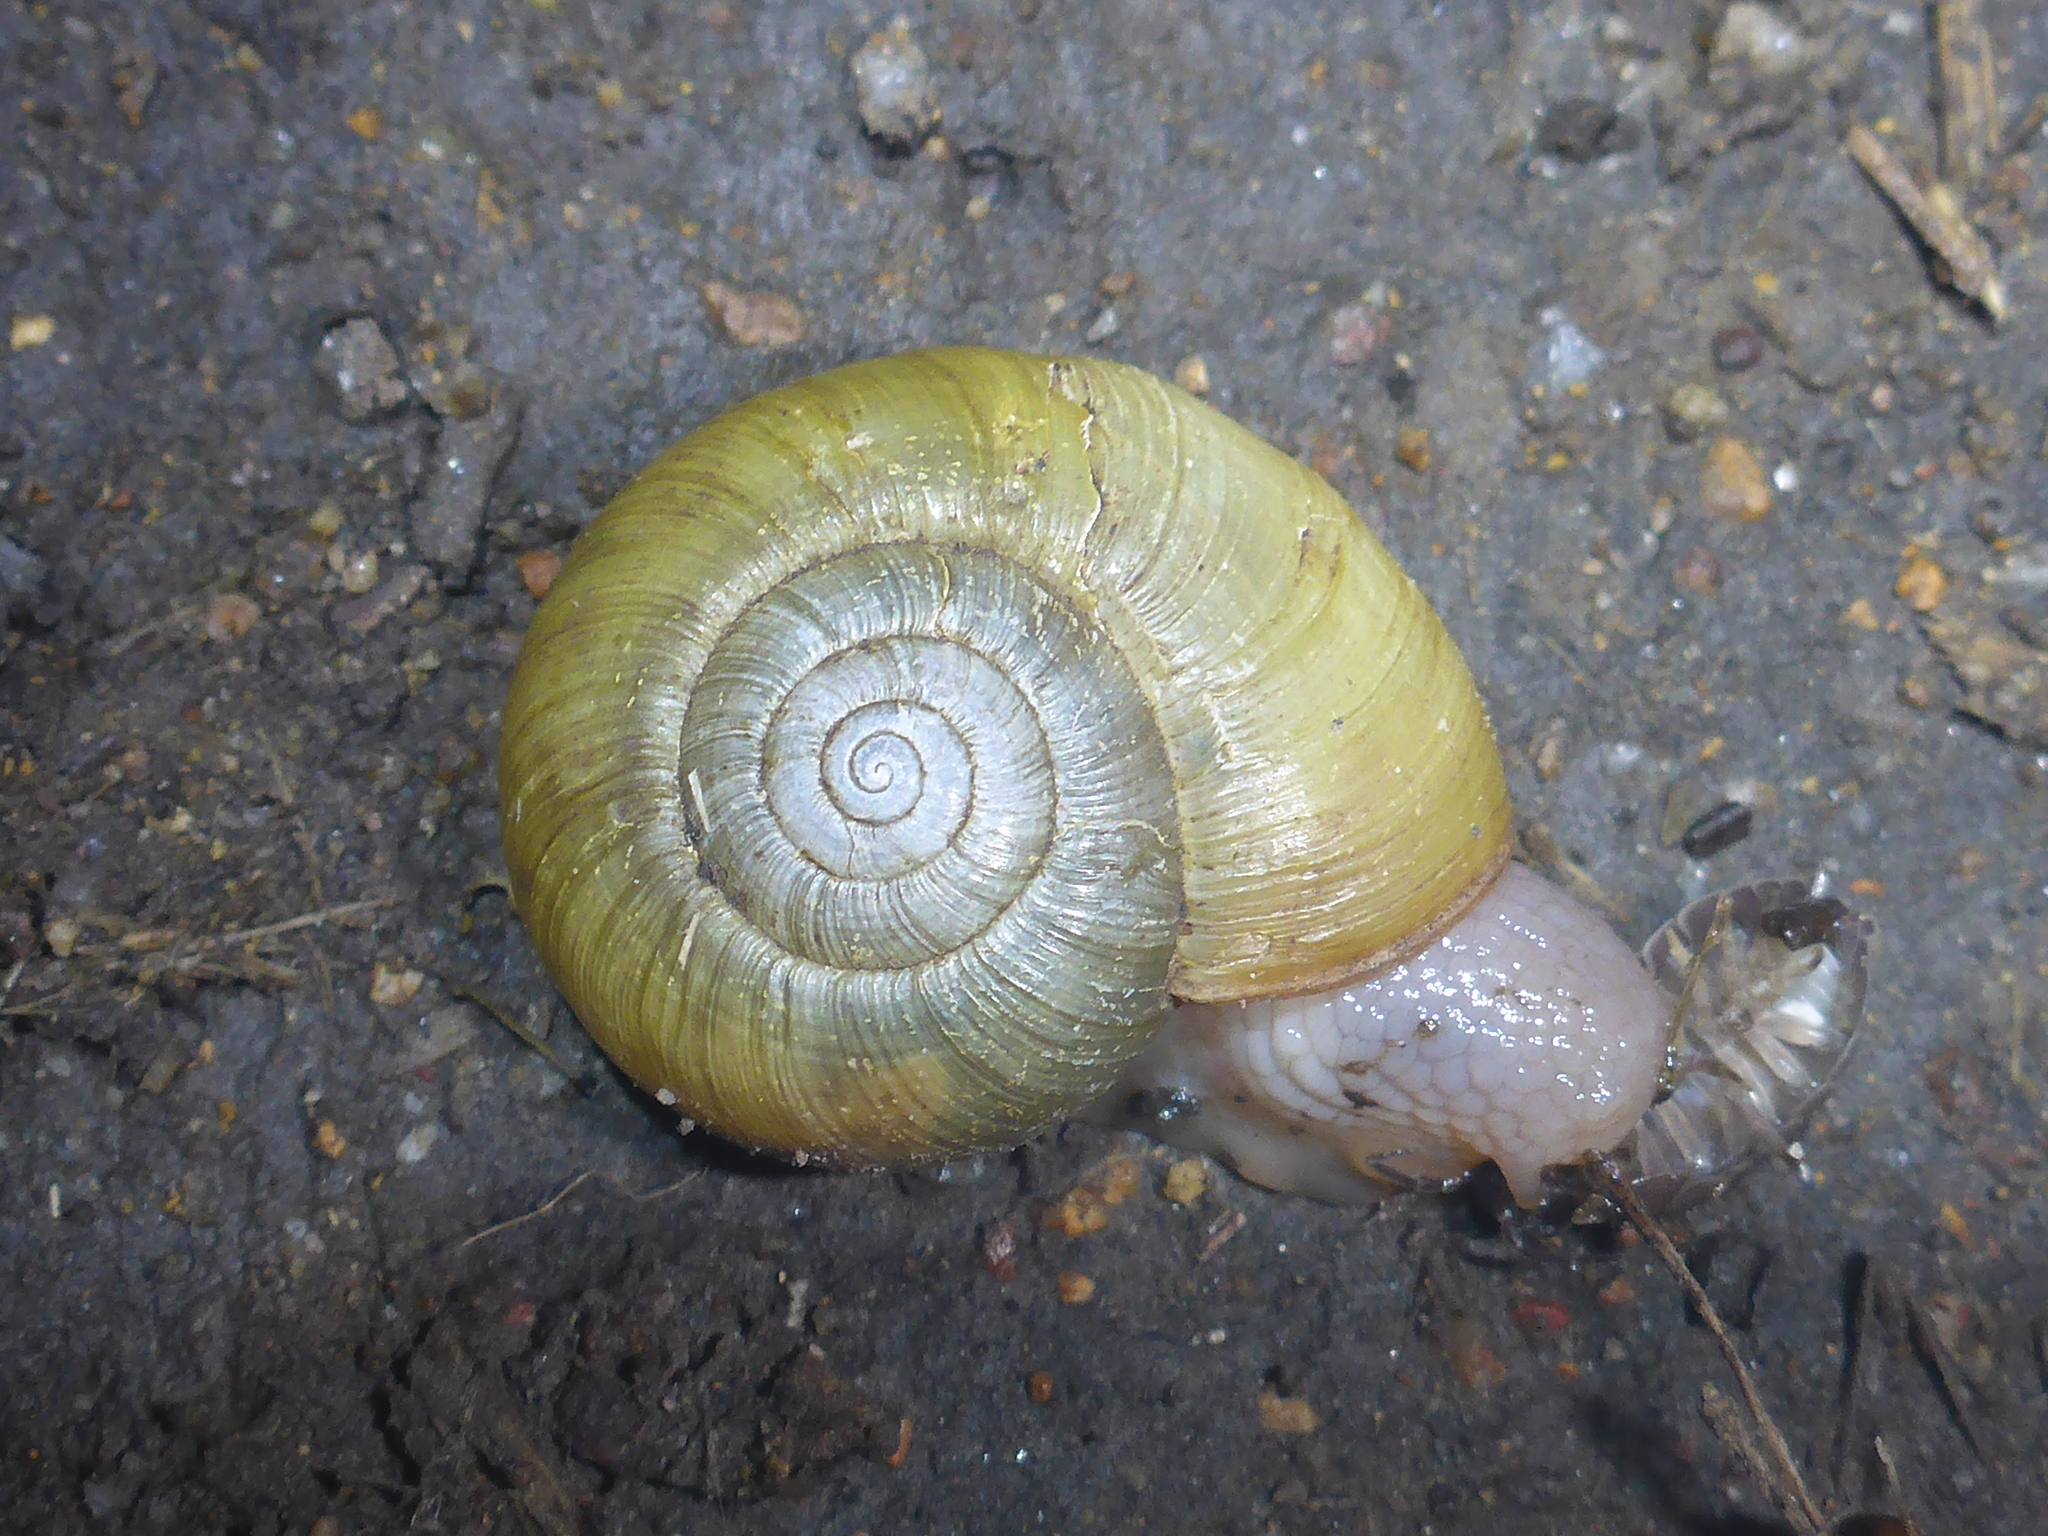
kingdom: Animalia
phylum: Mollusca
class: Gastropoda
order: Stylommatophora
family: Haplotrematidae
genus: Haplotrema
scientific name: Haplotrema minimum
